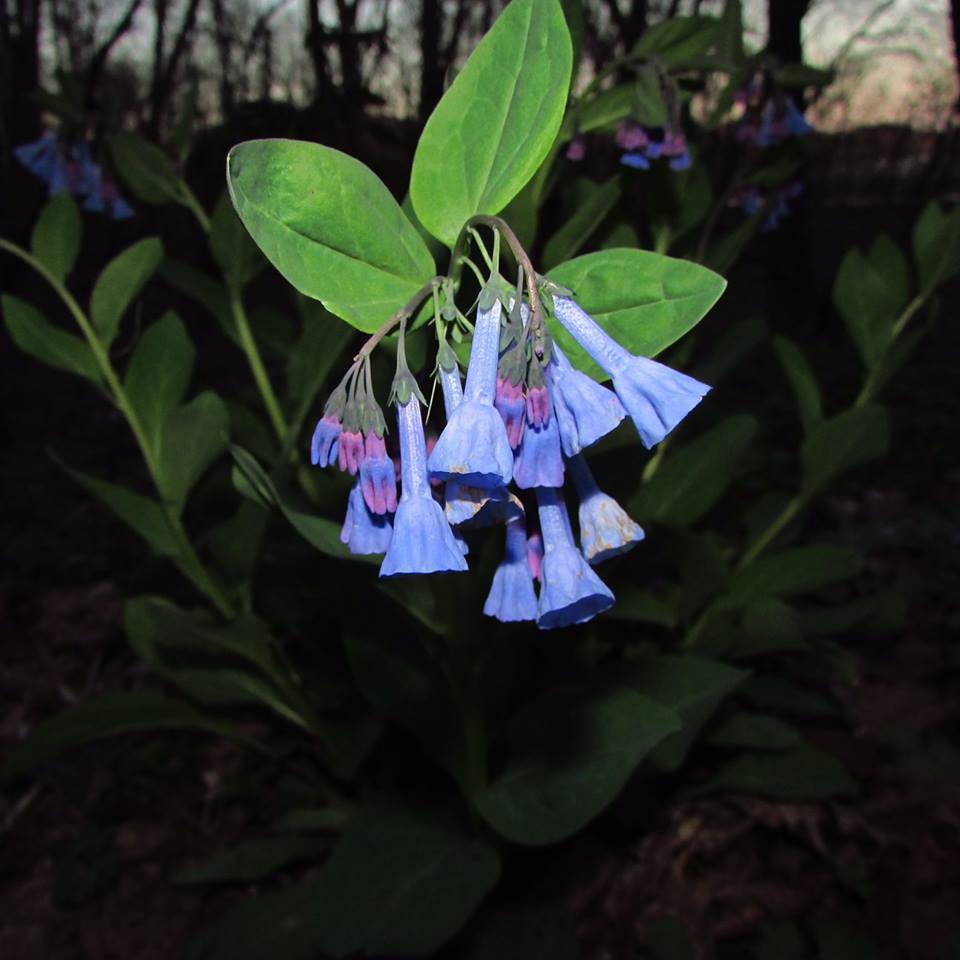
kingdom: Plantae
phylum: Tracheophyta
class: Magnoliopsida
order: Boraginales
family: Boraginaceae
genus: Mertensia
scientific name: Mertensia virginica
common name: Virginia bluebells
